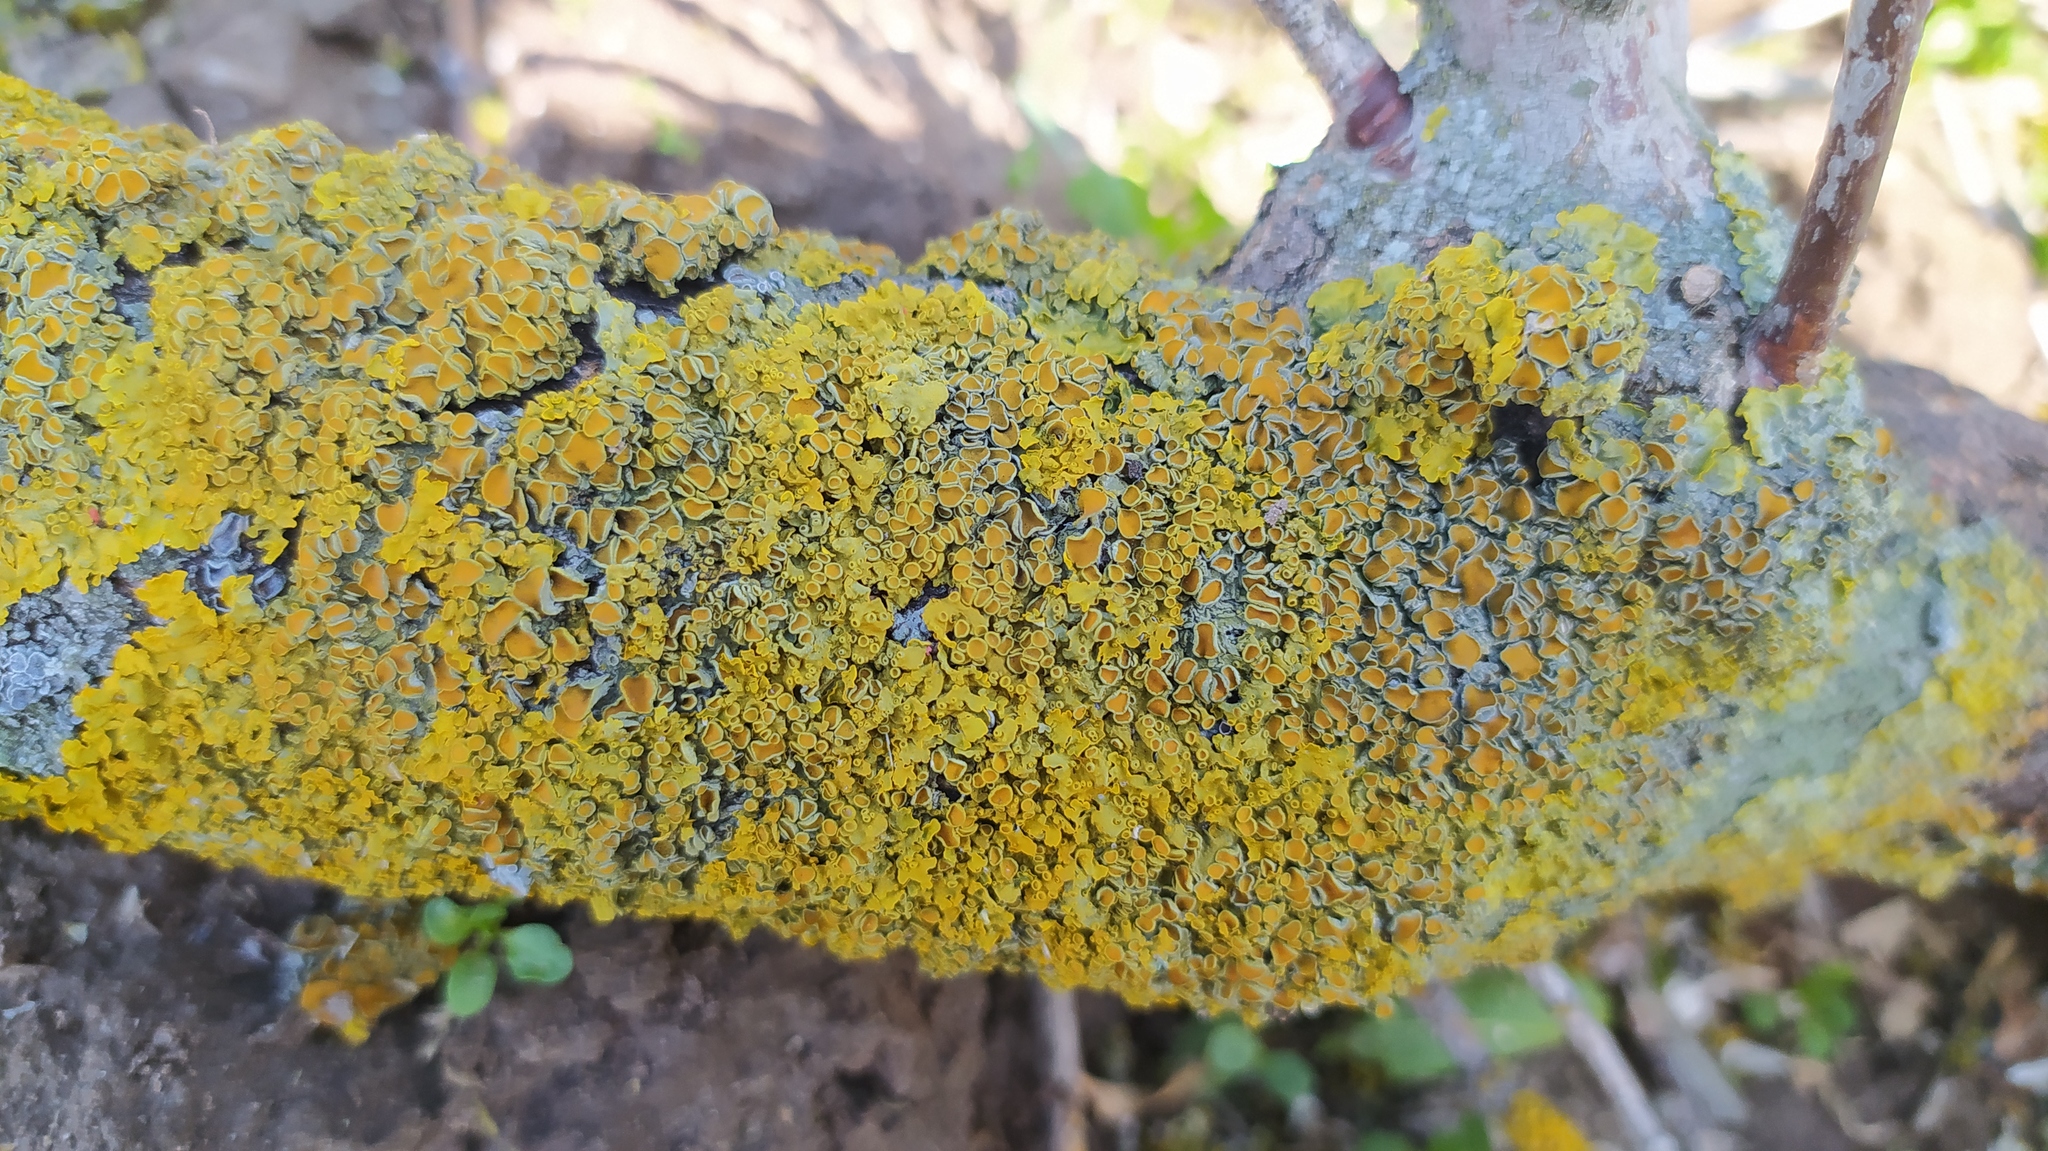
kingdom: Fungi
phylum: Ascomycota
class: Lecanoromycetes
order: Teloschistales
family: Teloschistaceae
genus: Xanthoria
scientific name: Xanthoria parietina
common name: Common orange lichen
